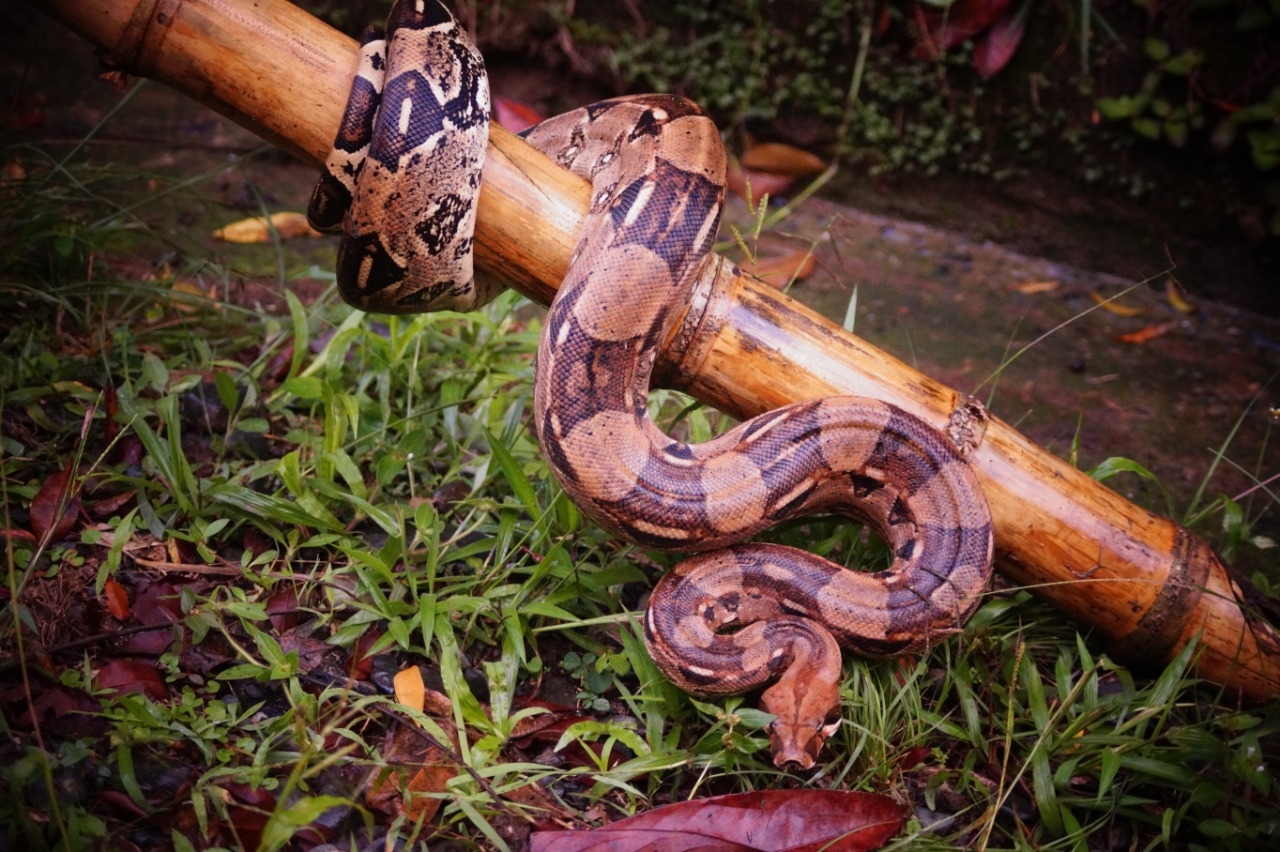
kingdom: Animalia
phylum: Chordata
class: Squamata
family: Boidae
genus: Boa
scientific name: Boa constrictor
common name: Boa constrictor
